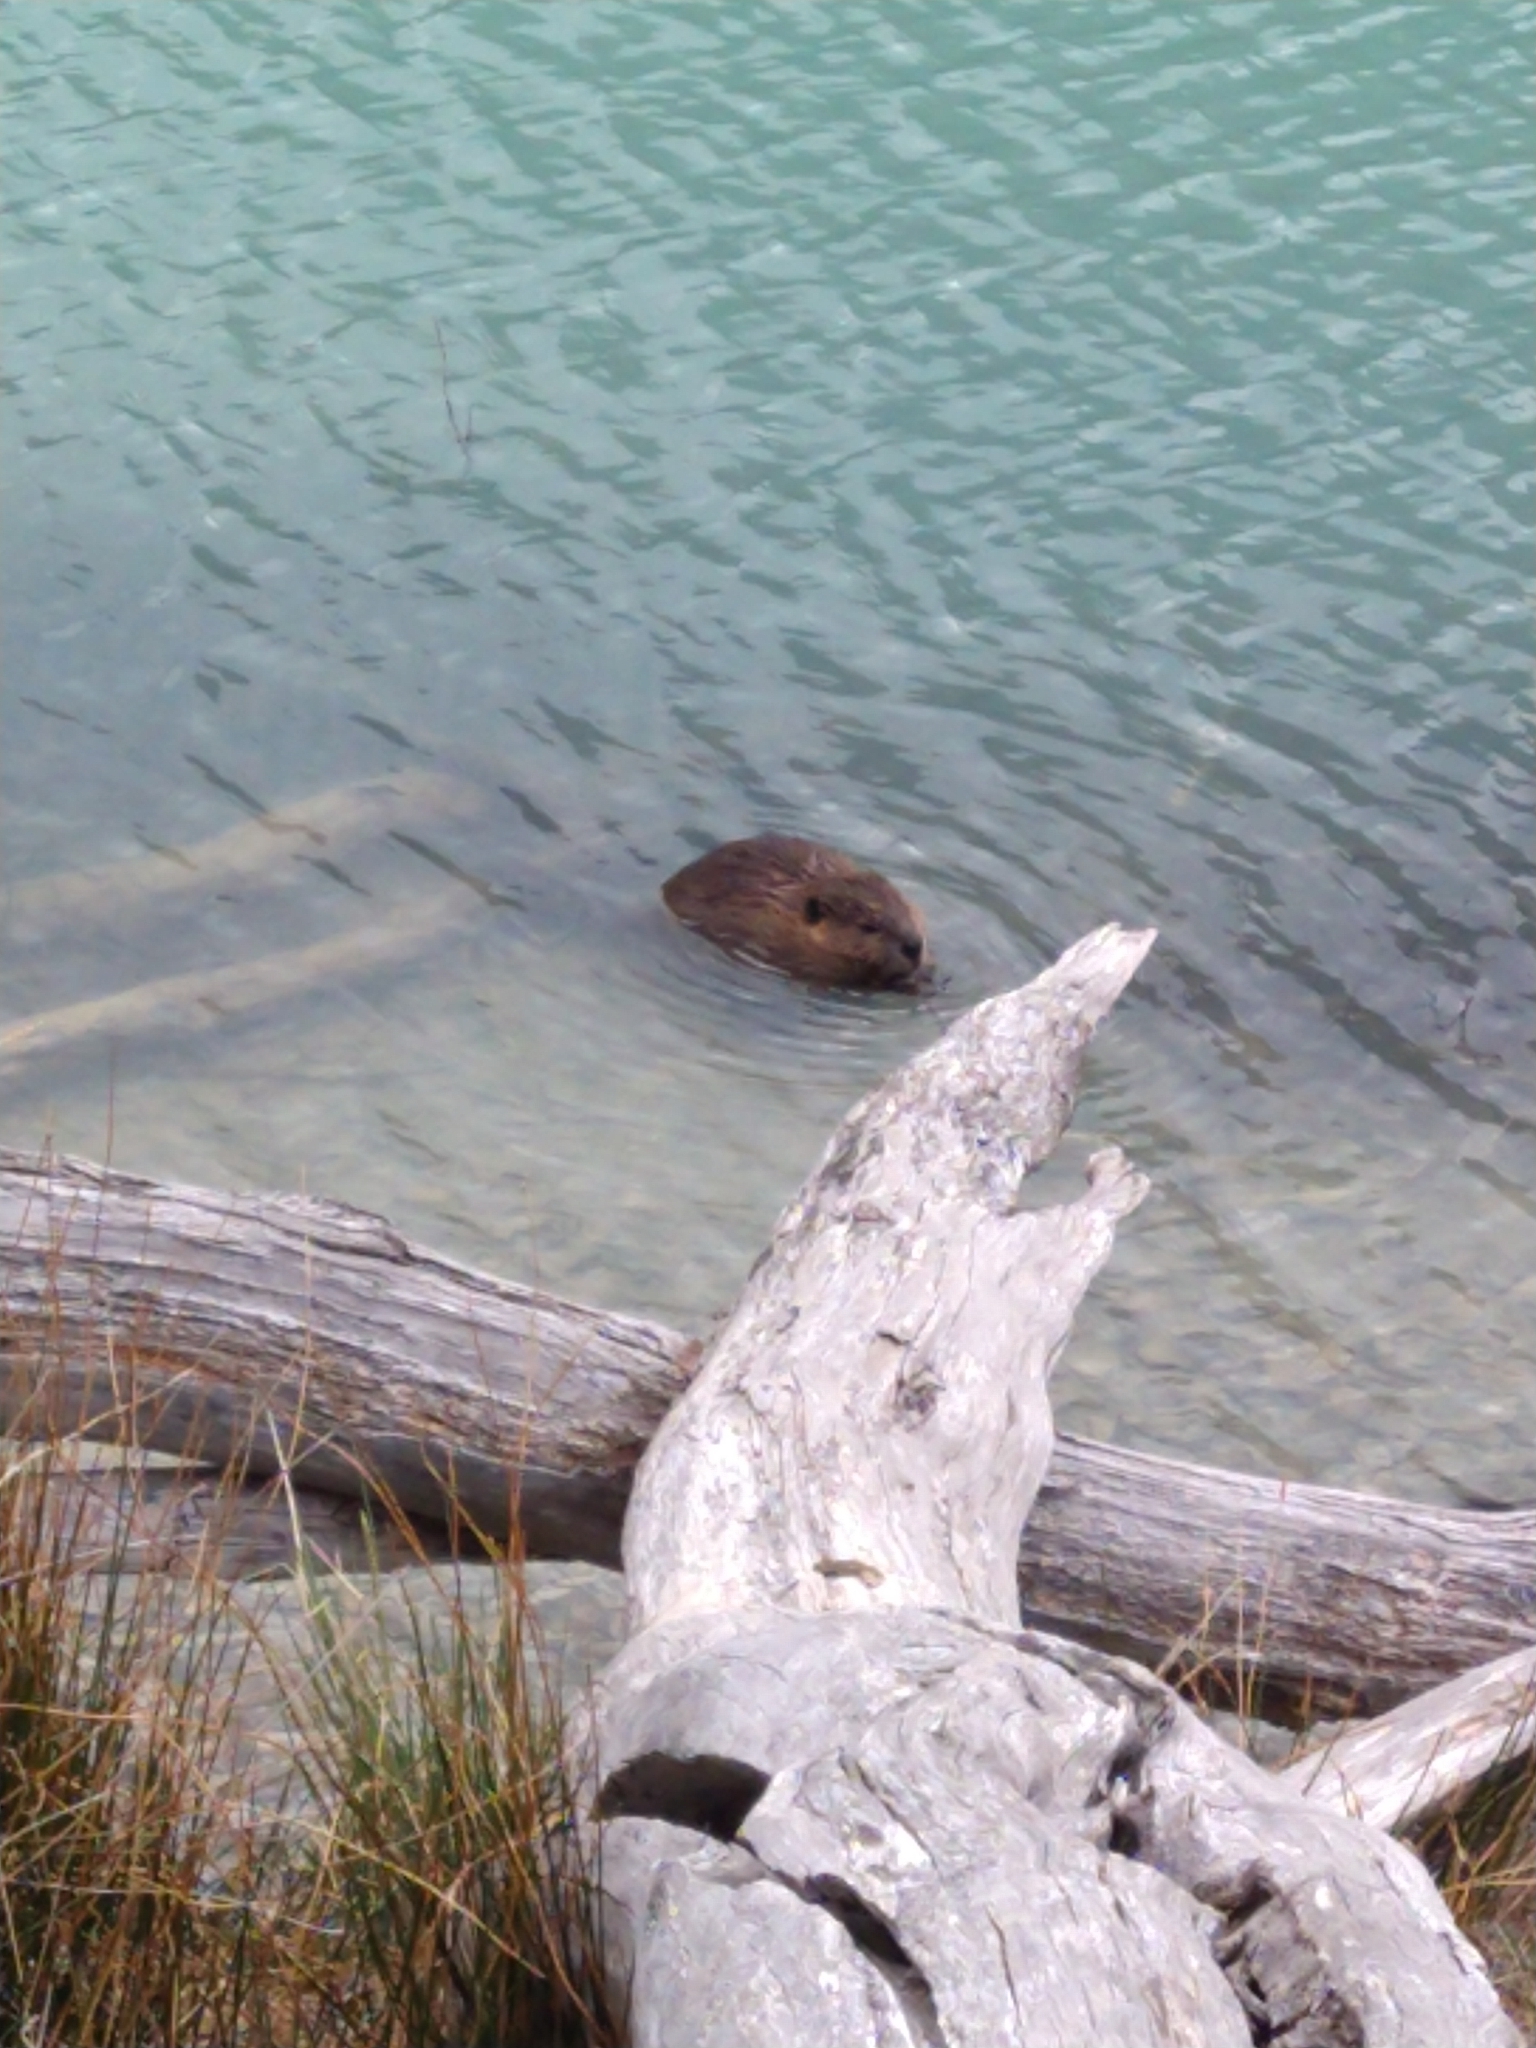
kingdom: Animalia
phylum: Chordata
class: Mammalia
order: Rodentia
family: Castoridae
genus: Castor
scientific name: Castor canadensis
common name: American beaver
